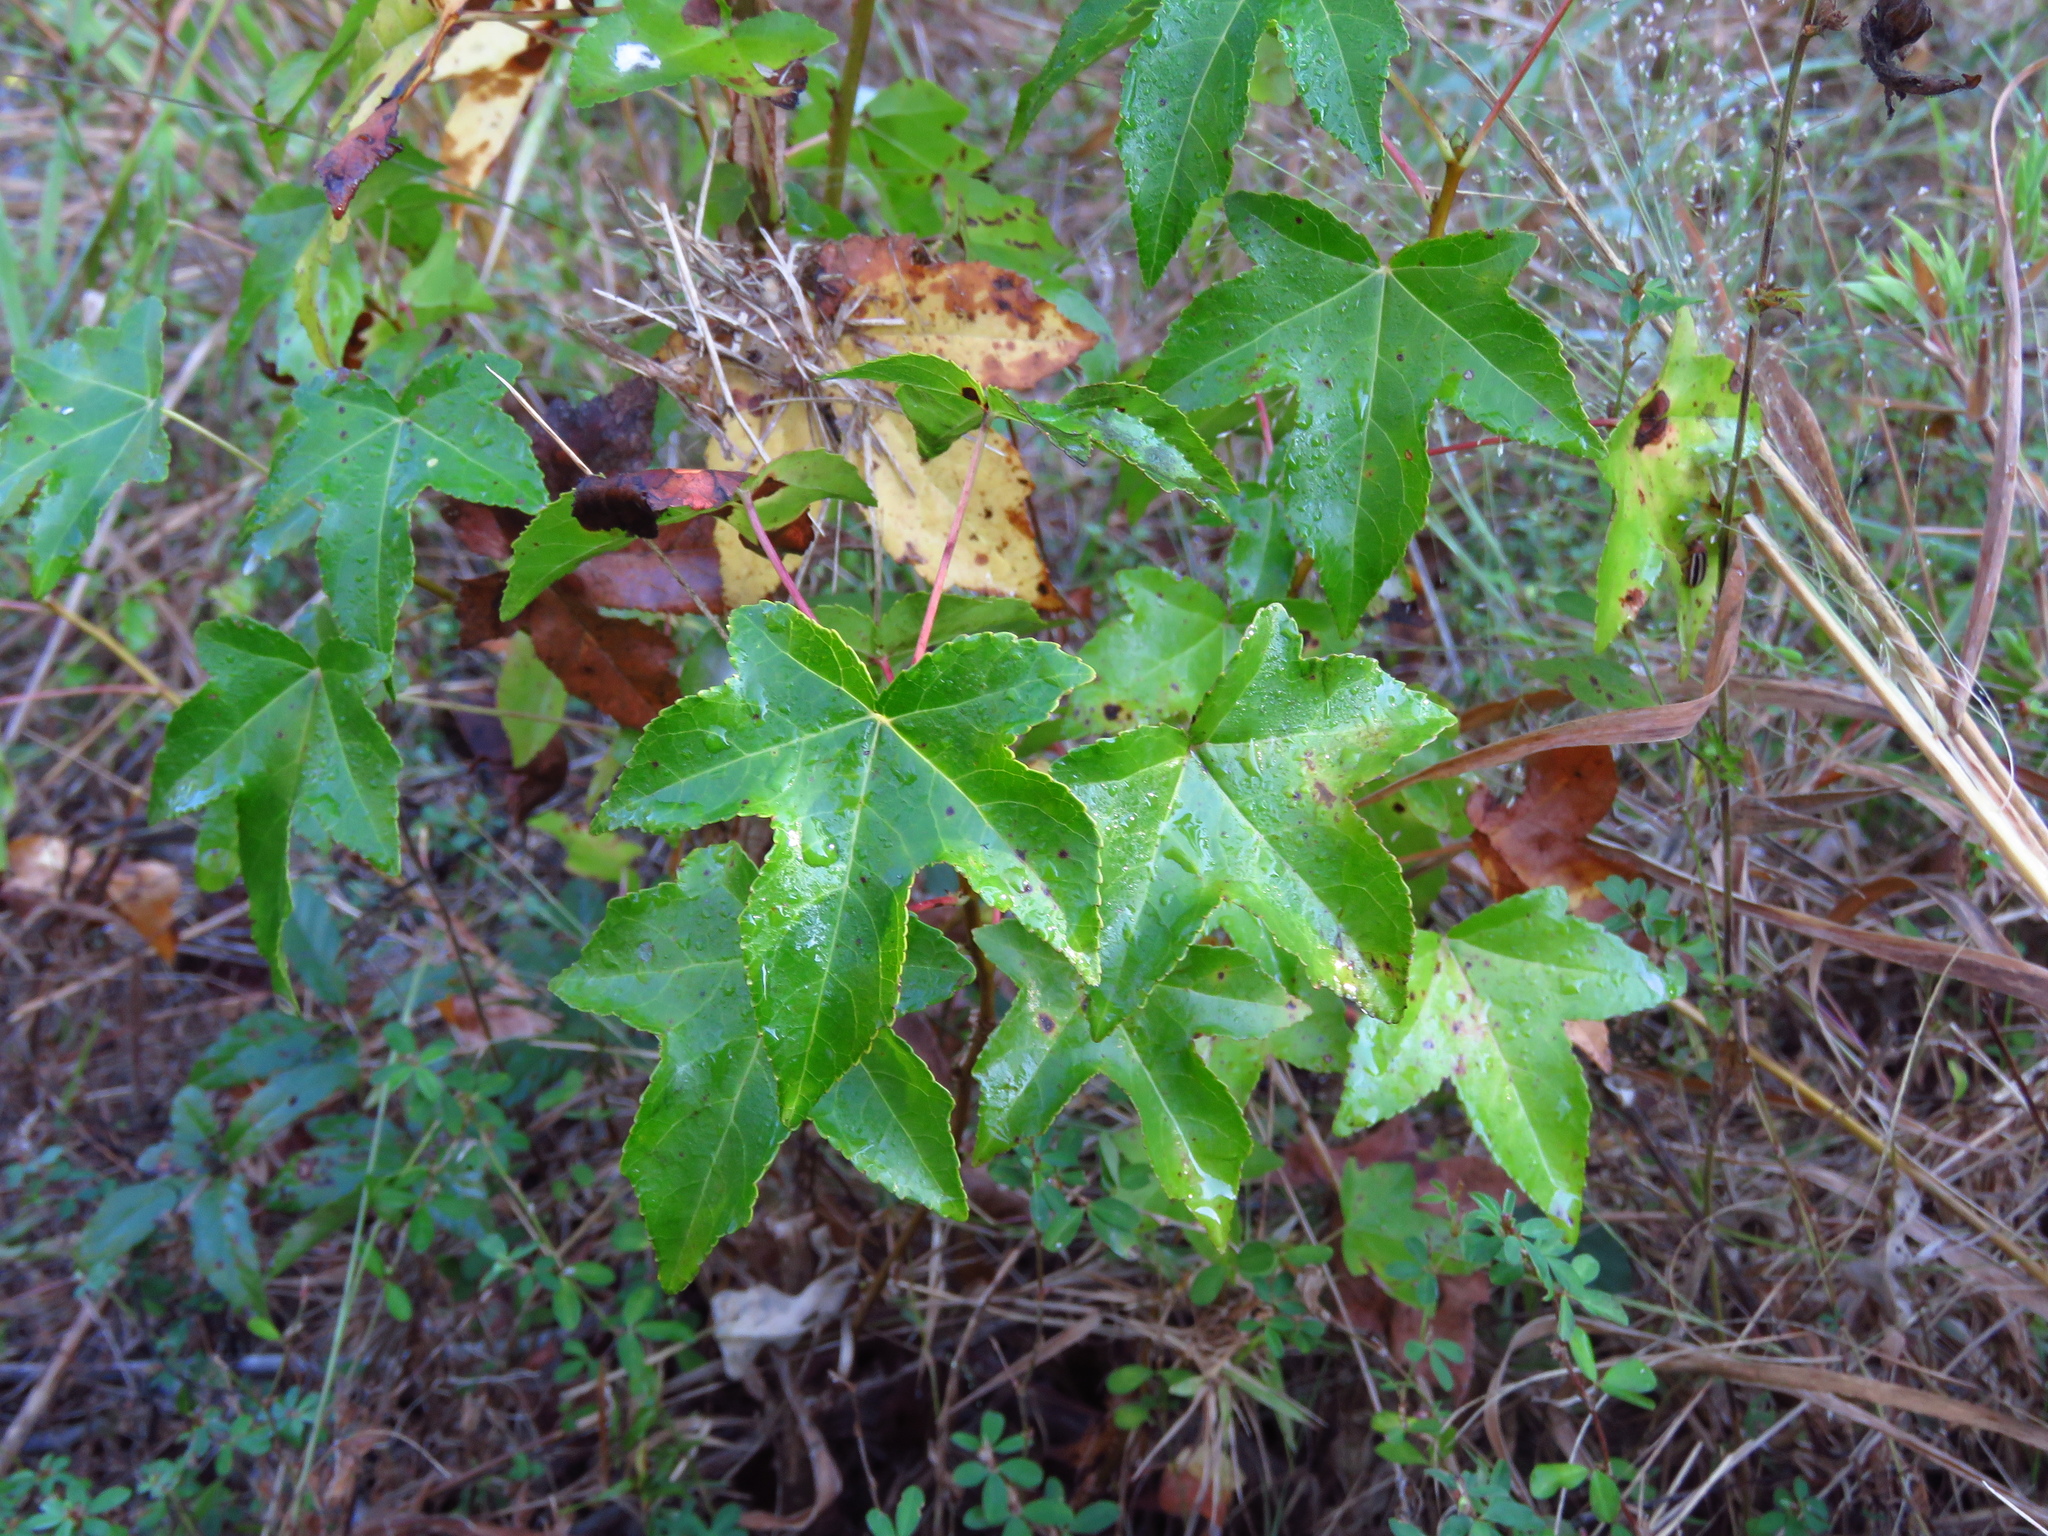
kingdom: Plantae
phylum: Tracheophyta
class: Magnoliopsida
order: Saxifragales
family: Altingiaceae
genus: Liquidambar
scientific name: Liquidambar styraciflua
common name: Sweet gum
